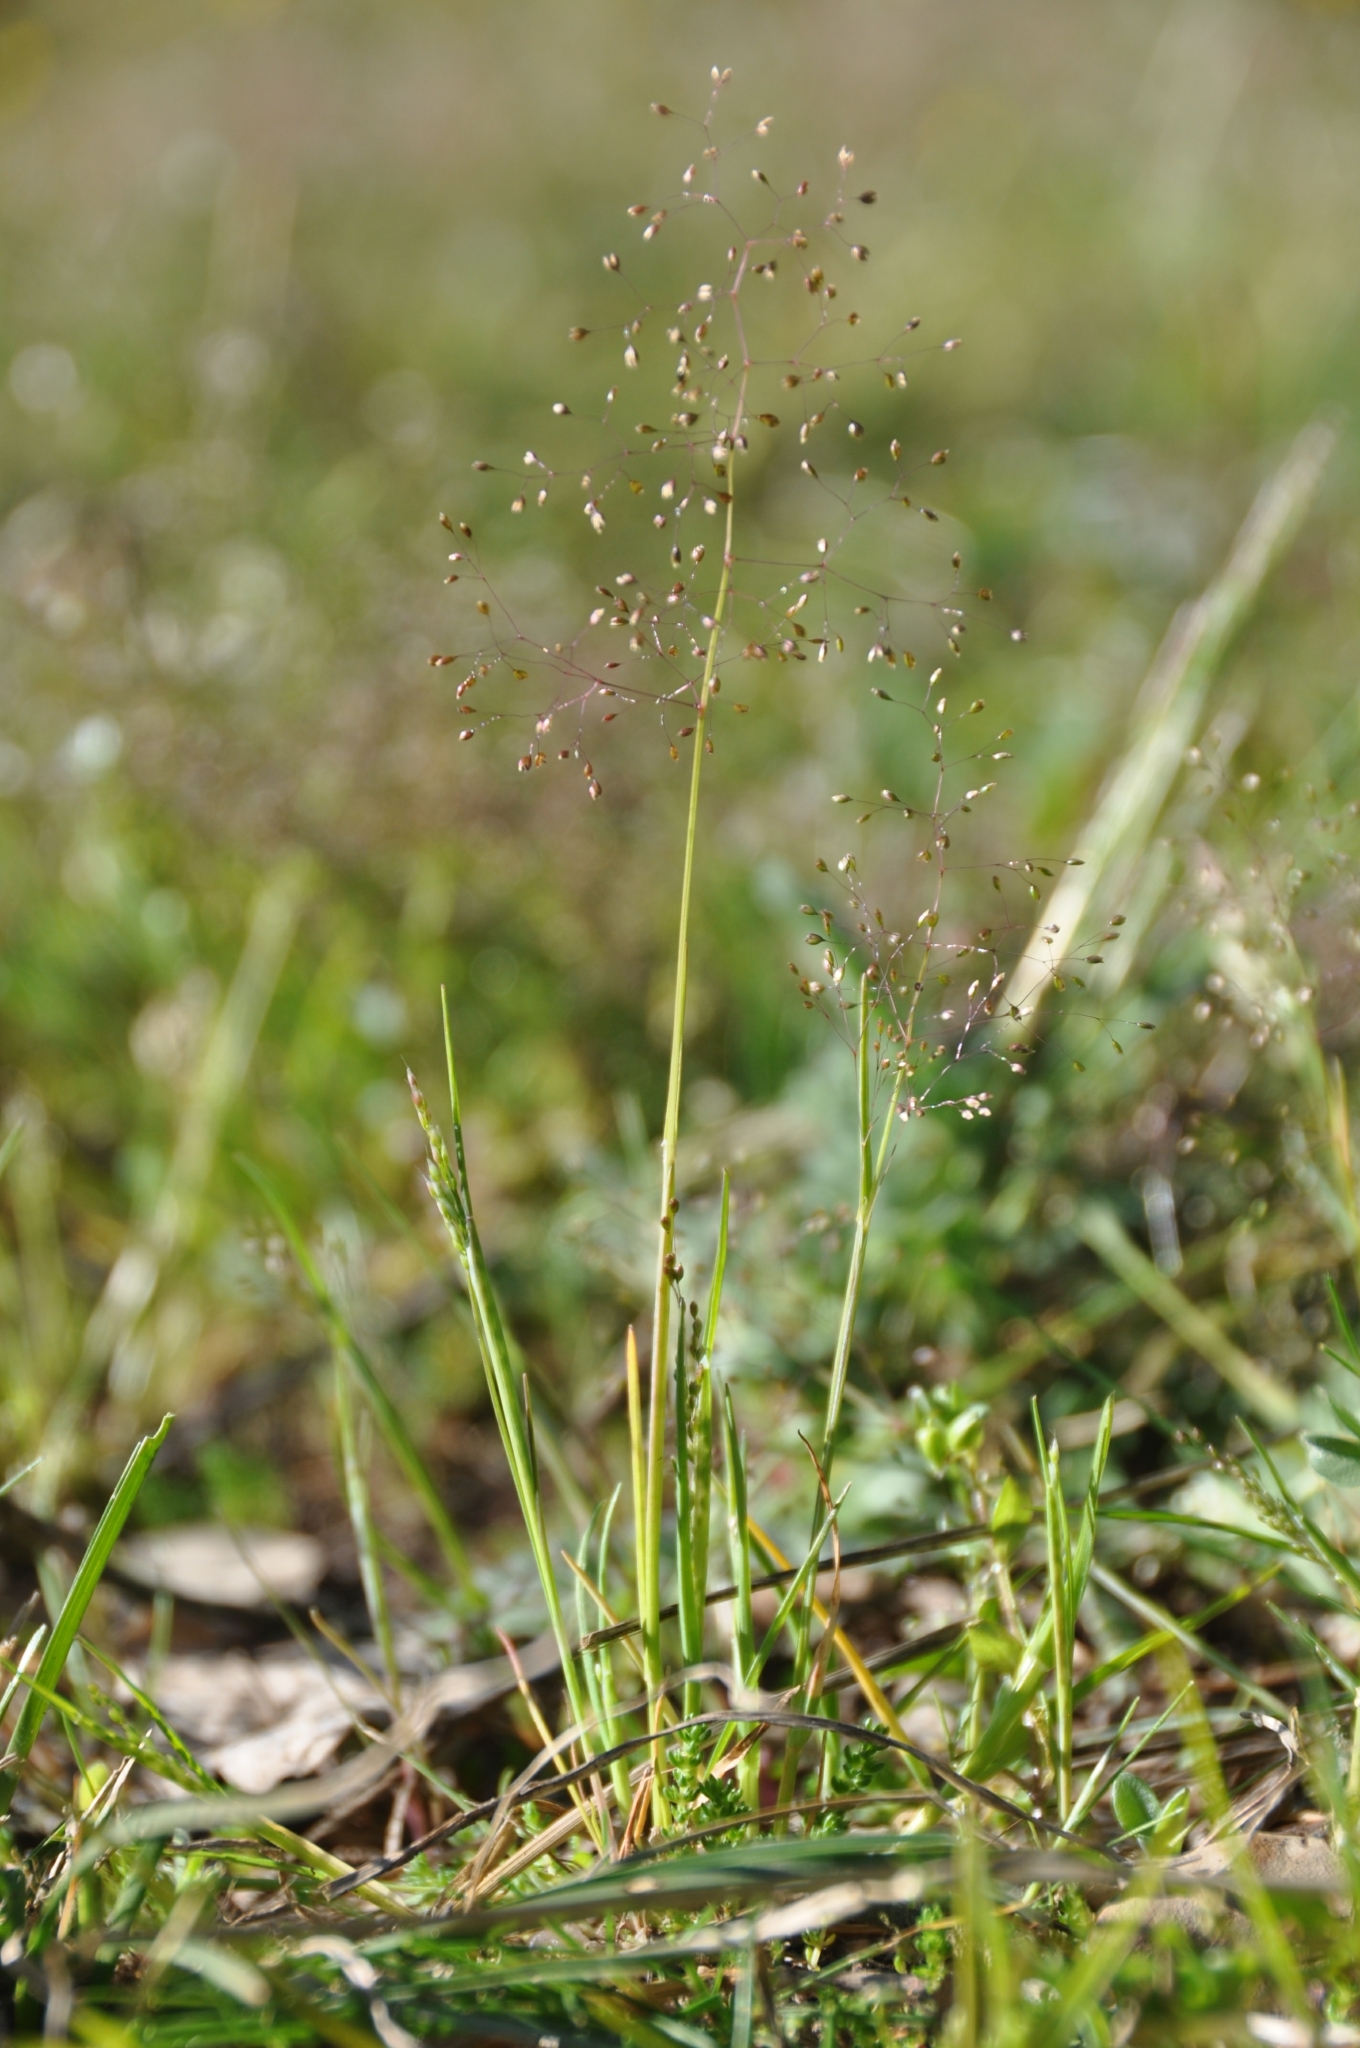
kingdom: Plantae
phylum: Tracheophyta
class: Liliopsida
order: Poales
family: Poaceae
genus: Molineriella
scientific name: Molineriella minuta
